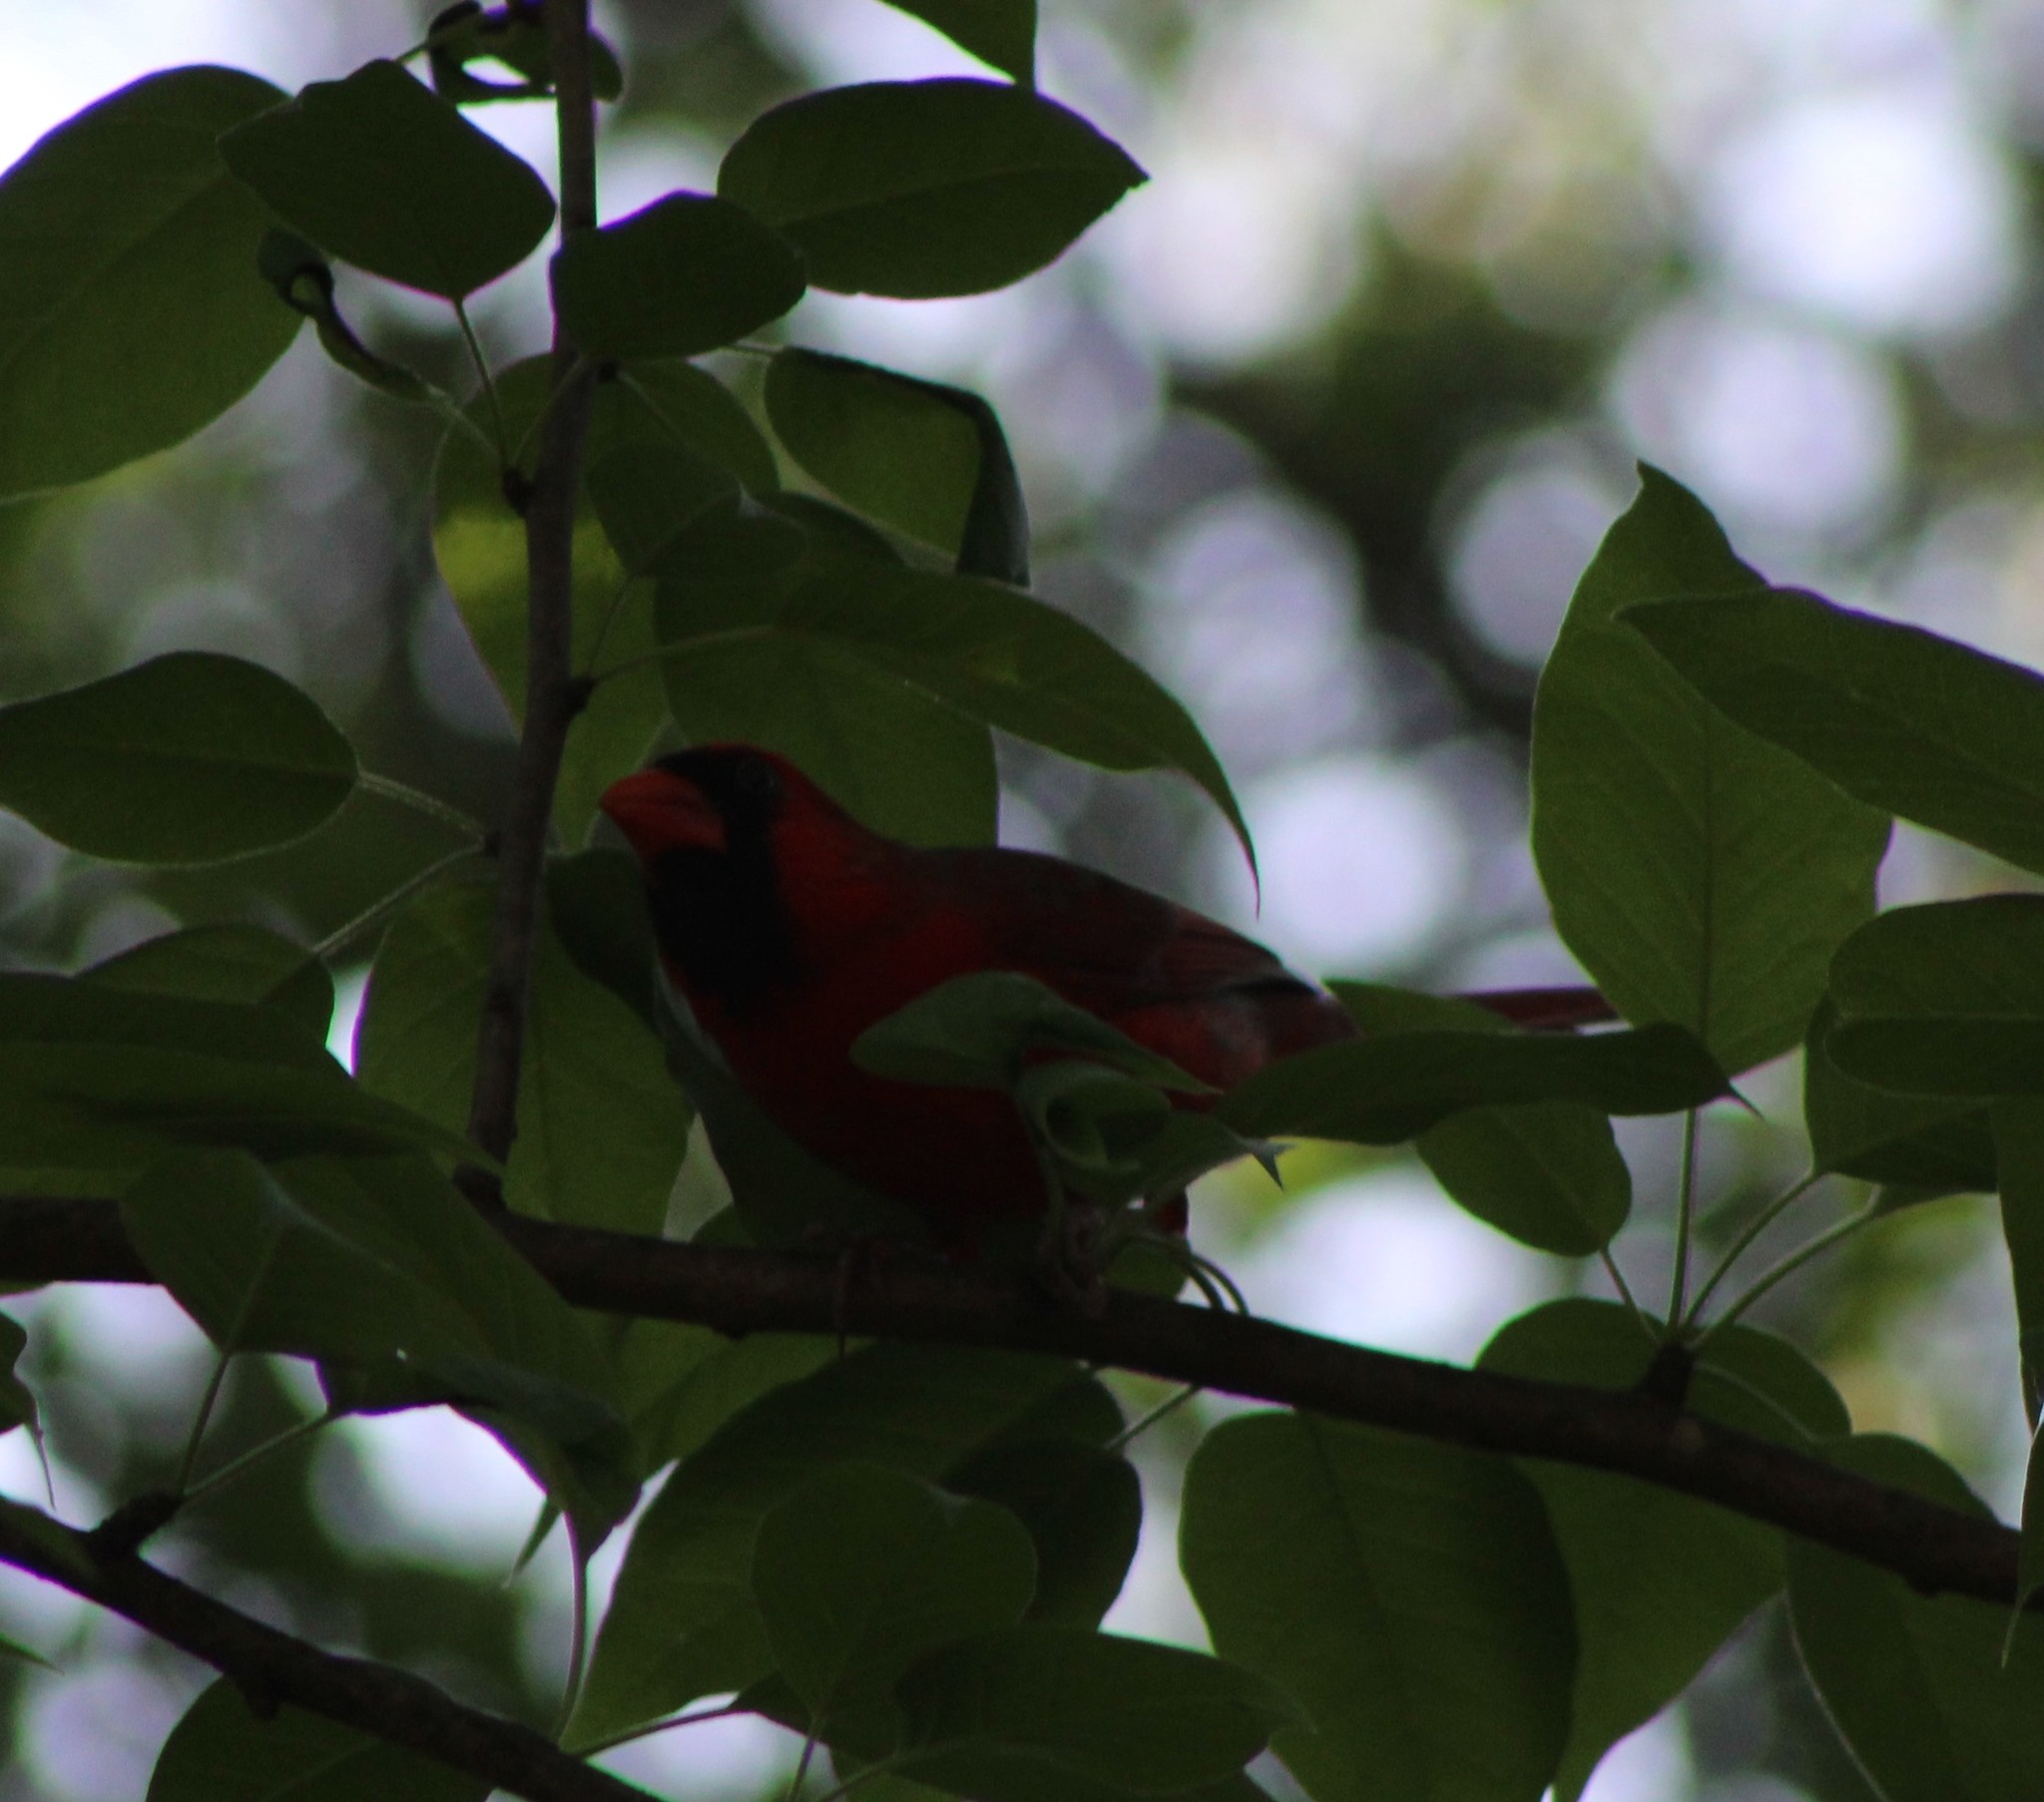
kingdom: Animalia
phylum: Chordata
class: Aves
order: Passeriformes
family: Cardinalidae
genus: Cardinalis
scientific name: Cardinalis cardinalis
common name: Northern cardinal
